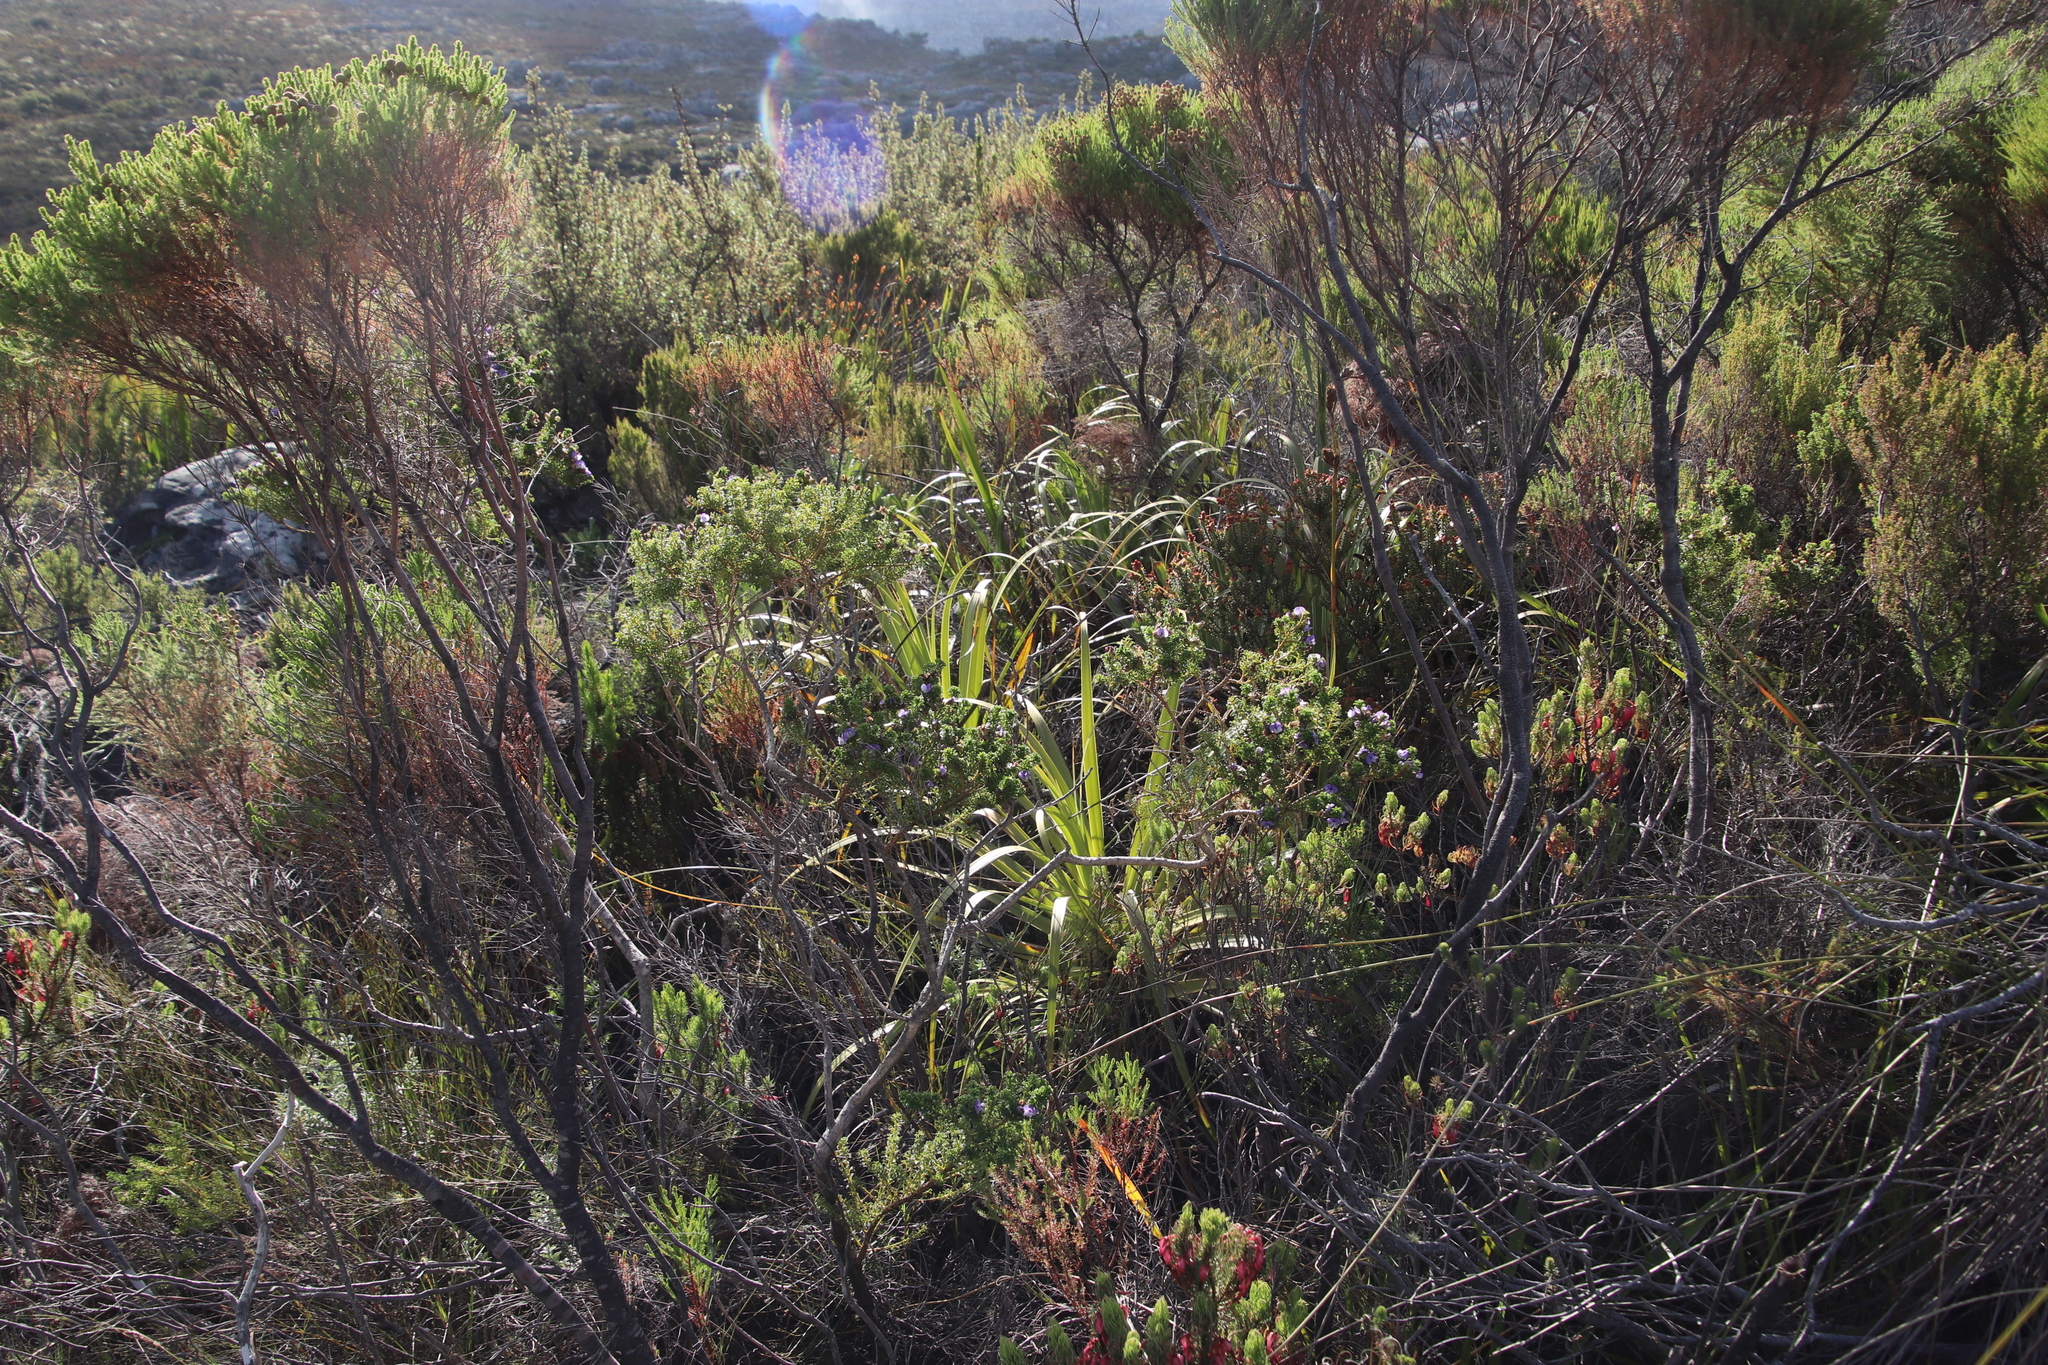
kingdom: Plantae
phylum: Tracheophyta
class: Magnoliopsida
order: Fabales
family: Fabaceae
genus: Psoralea
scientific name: Psoralea aculeata
